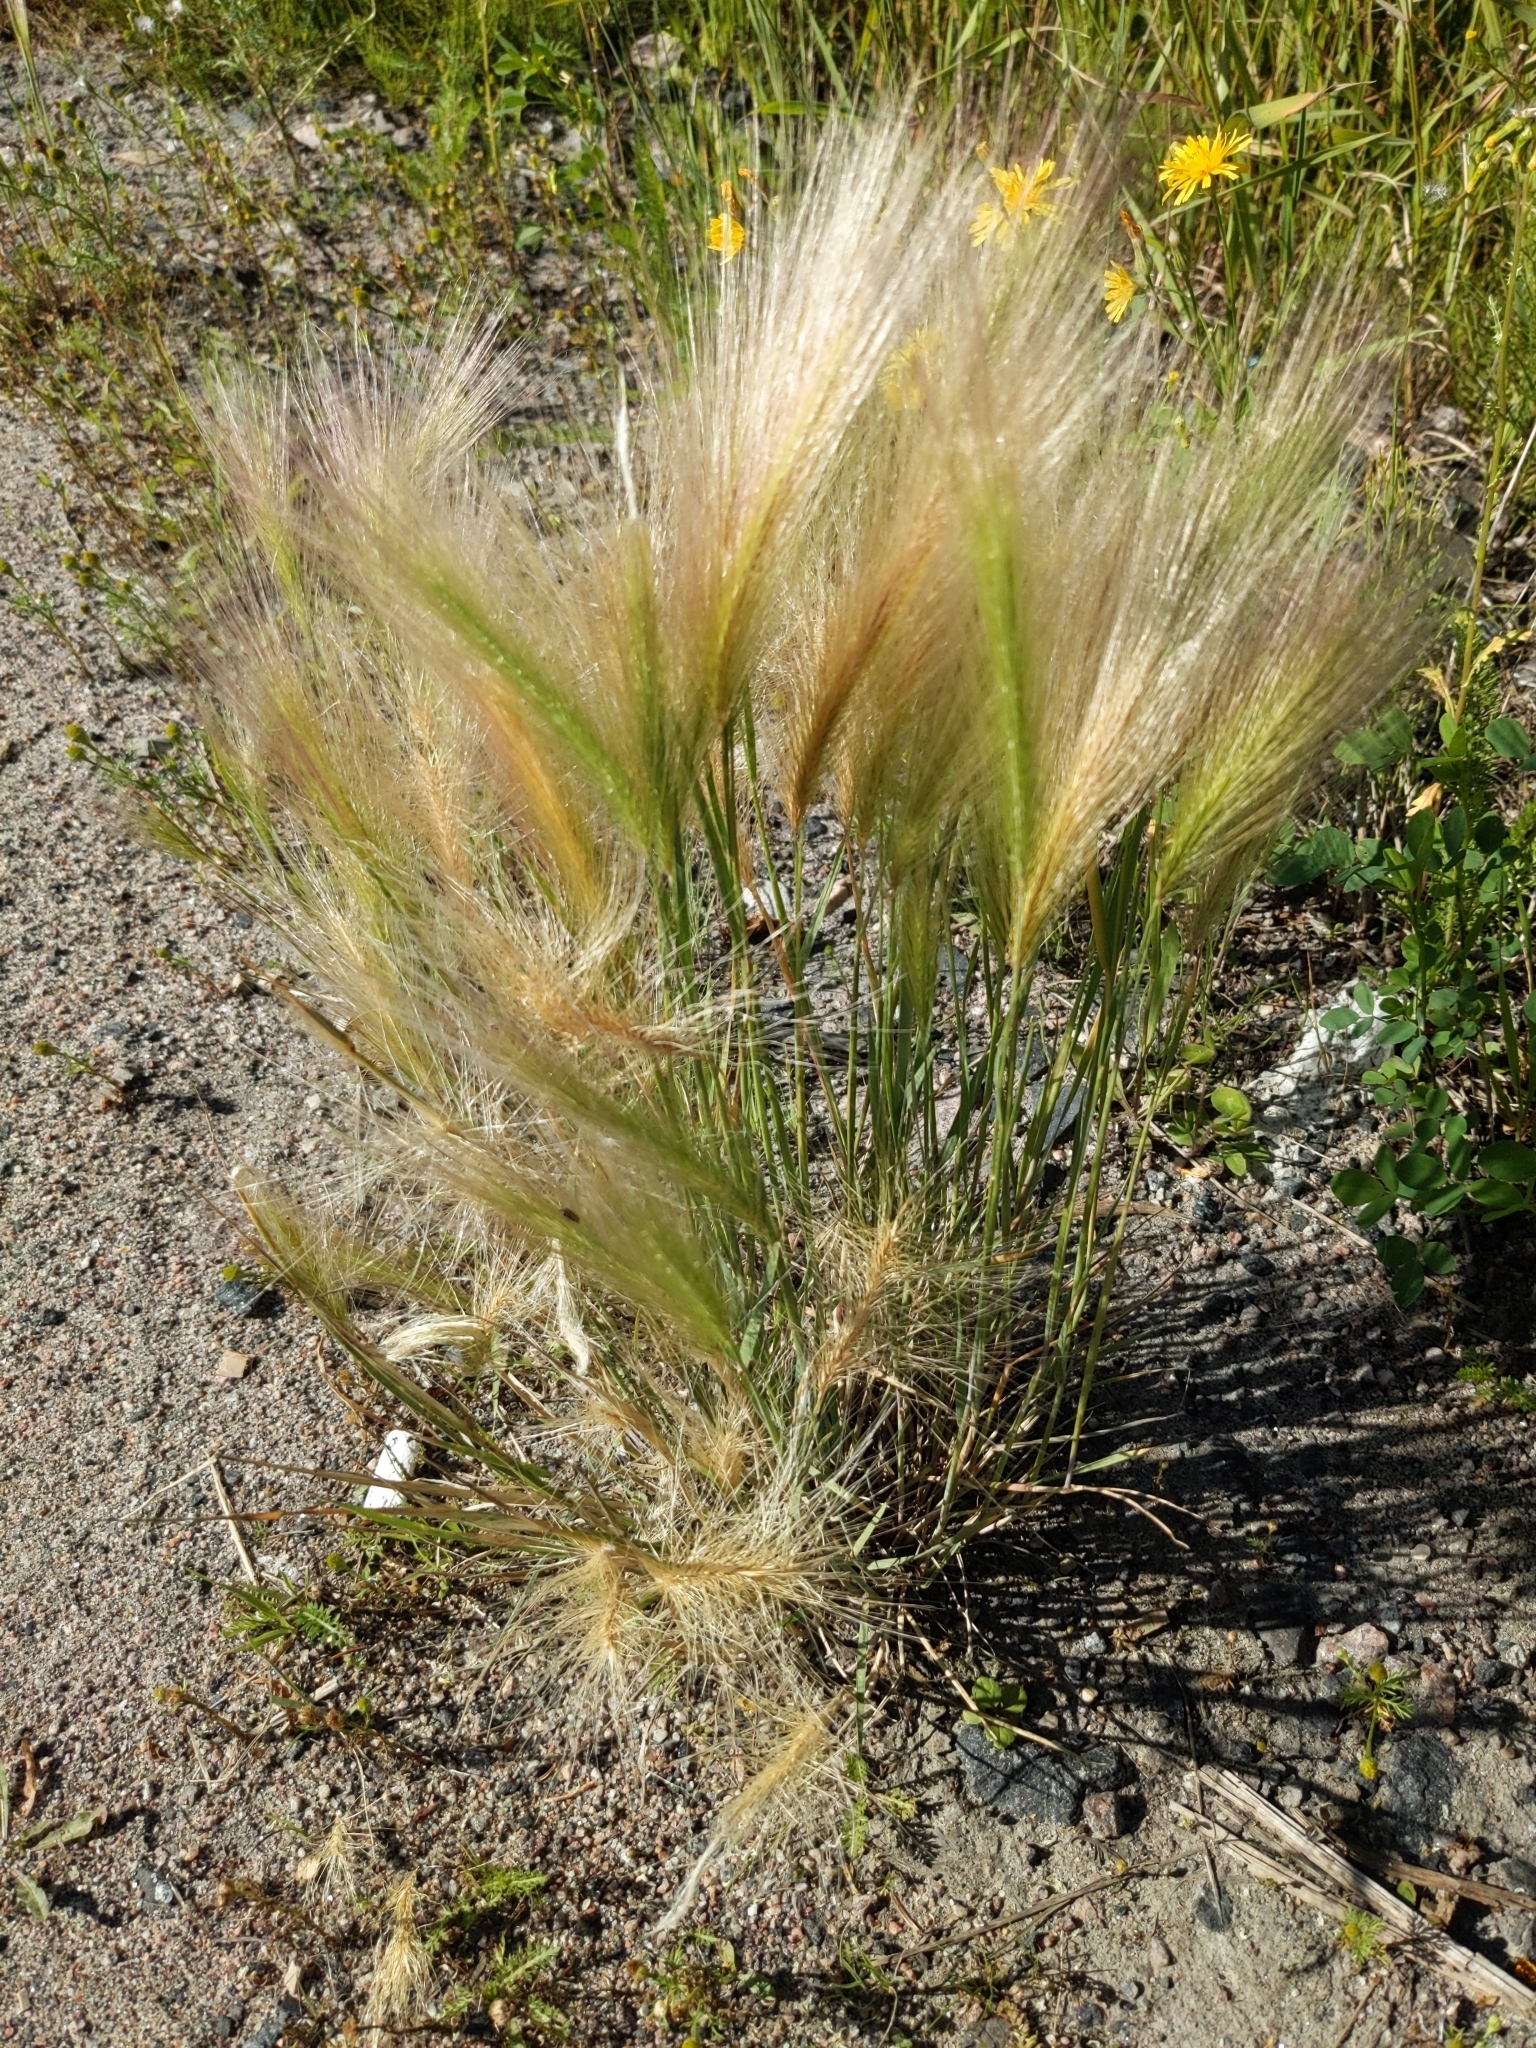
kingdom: Plantae
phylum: Tracheophyta
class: Liliopsida
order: Poales
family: Poaceae
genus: Hordeum
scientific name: Hordeum jubatum
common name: Foxtail barley
